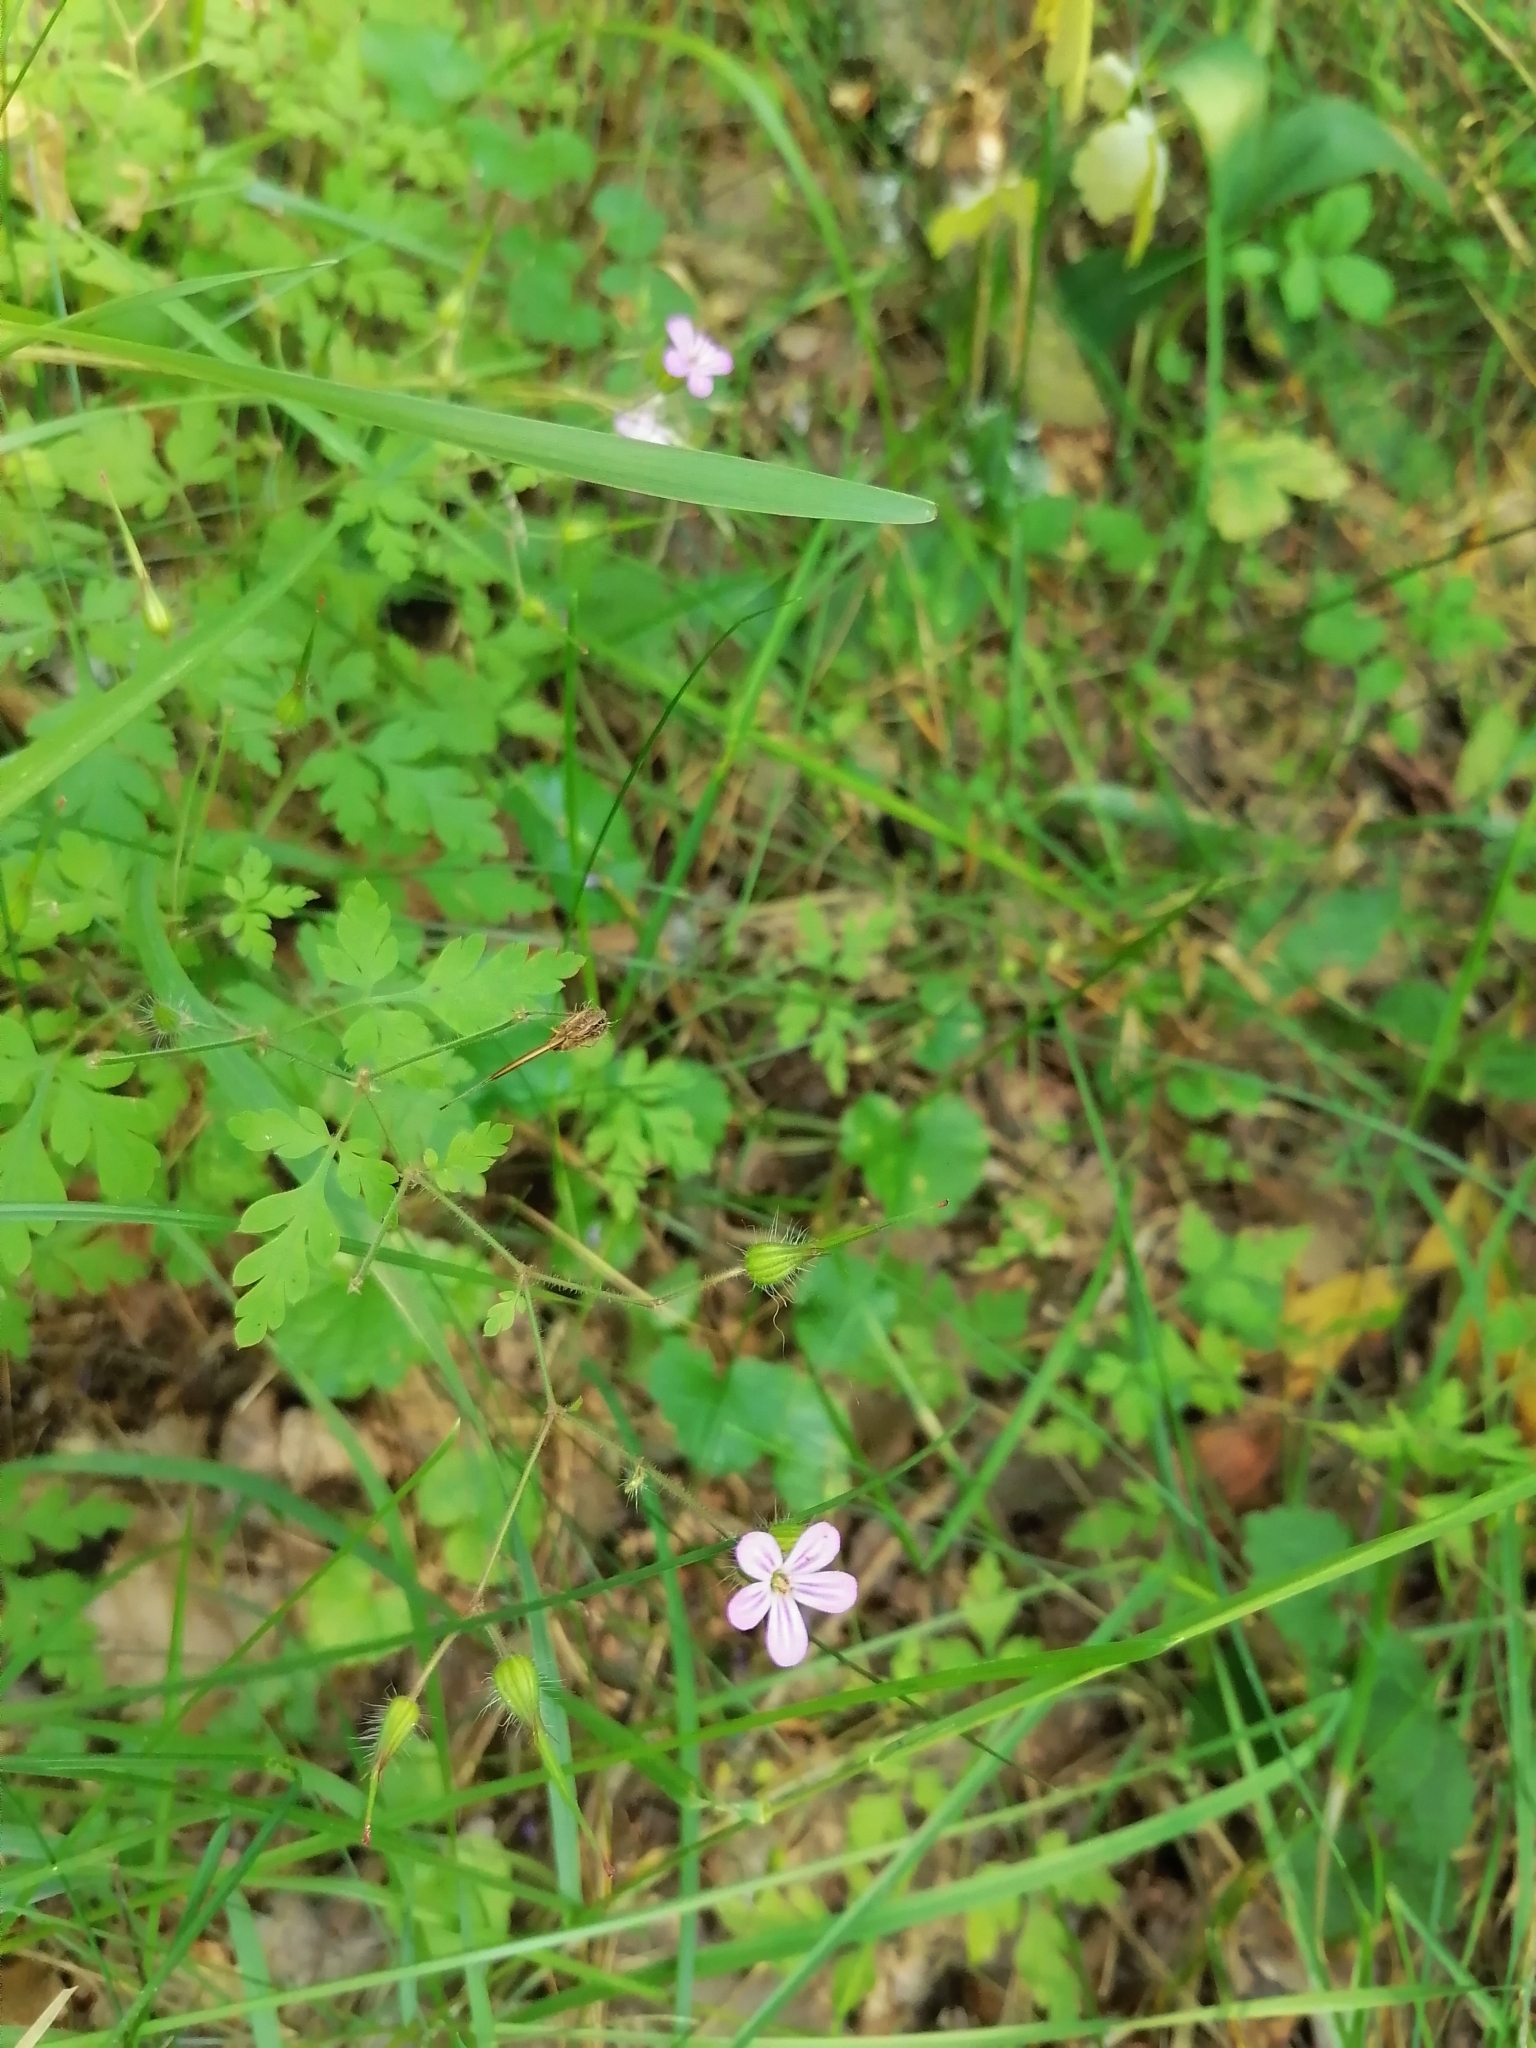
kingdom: Plantae
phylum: Tracheophyta
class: Magnoliopsida
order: Geraniales
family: Geraniaceae
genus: Geranium
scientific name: Geranium robertianum
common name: Herb-robert
